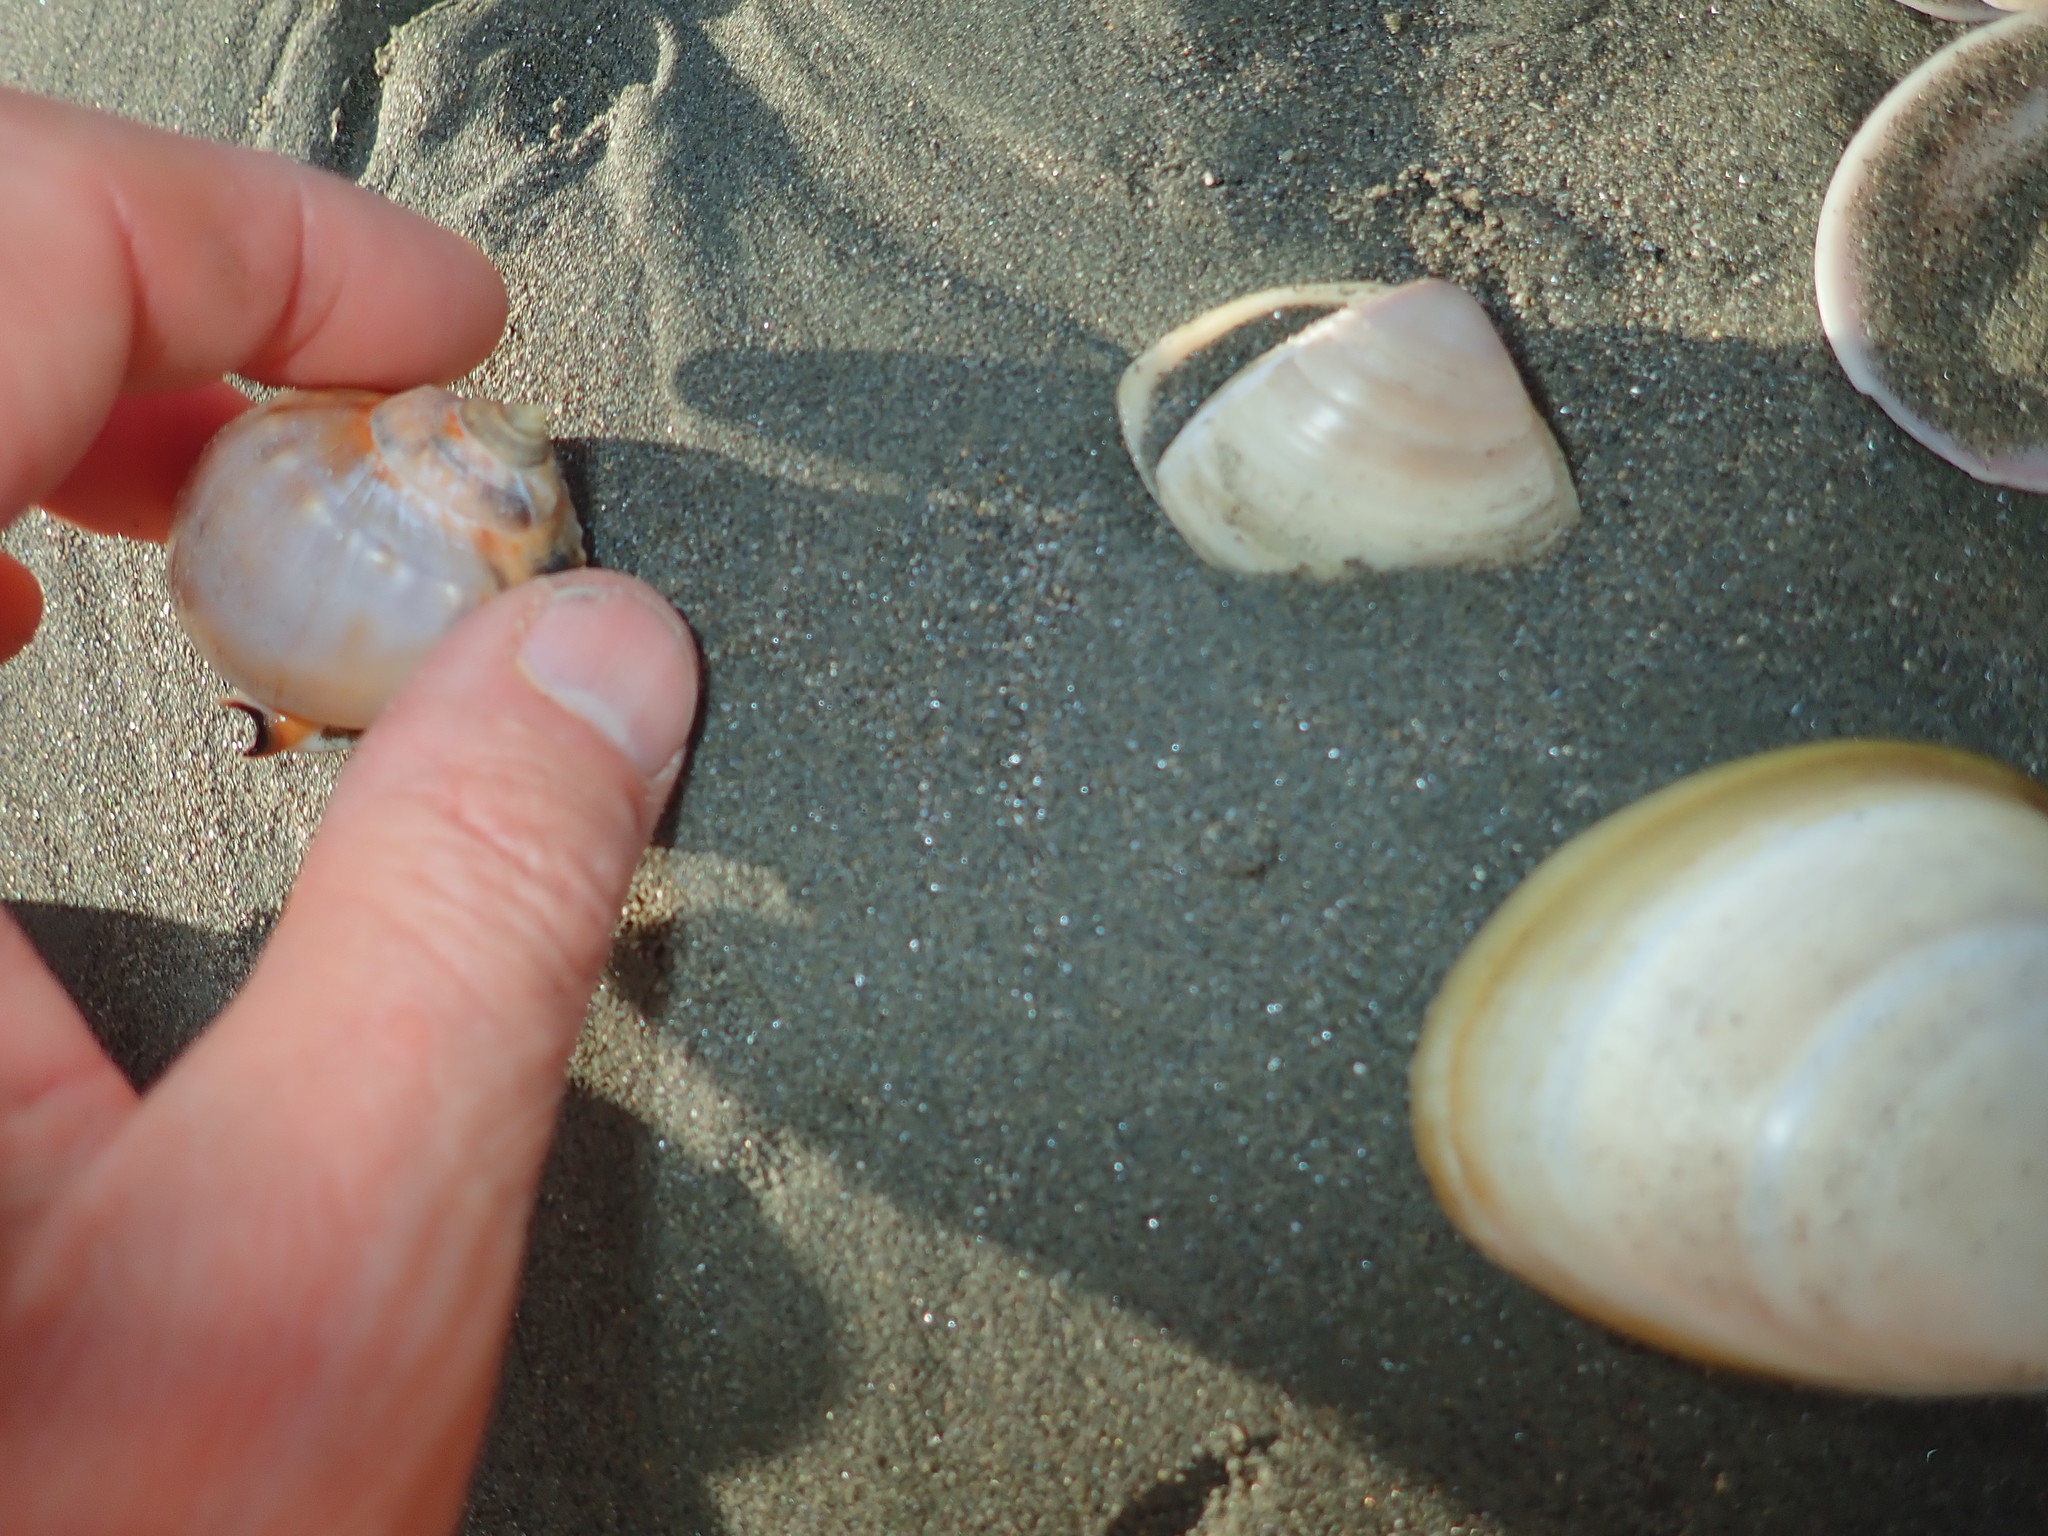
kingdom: Animalia
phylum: Mollusca
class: Gastropoda
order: Littorinimorpha
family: Cassidae
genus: Semicassis
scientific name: Semicassis pyrum
